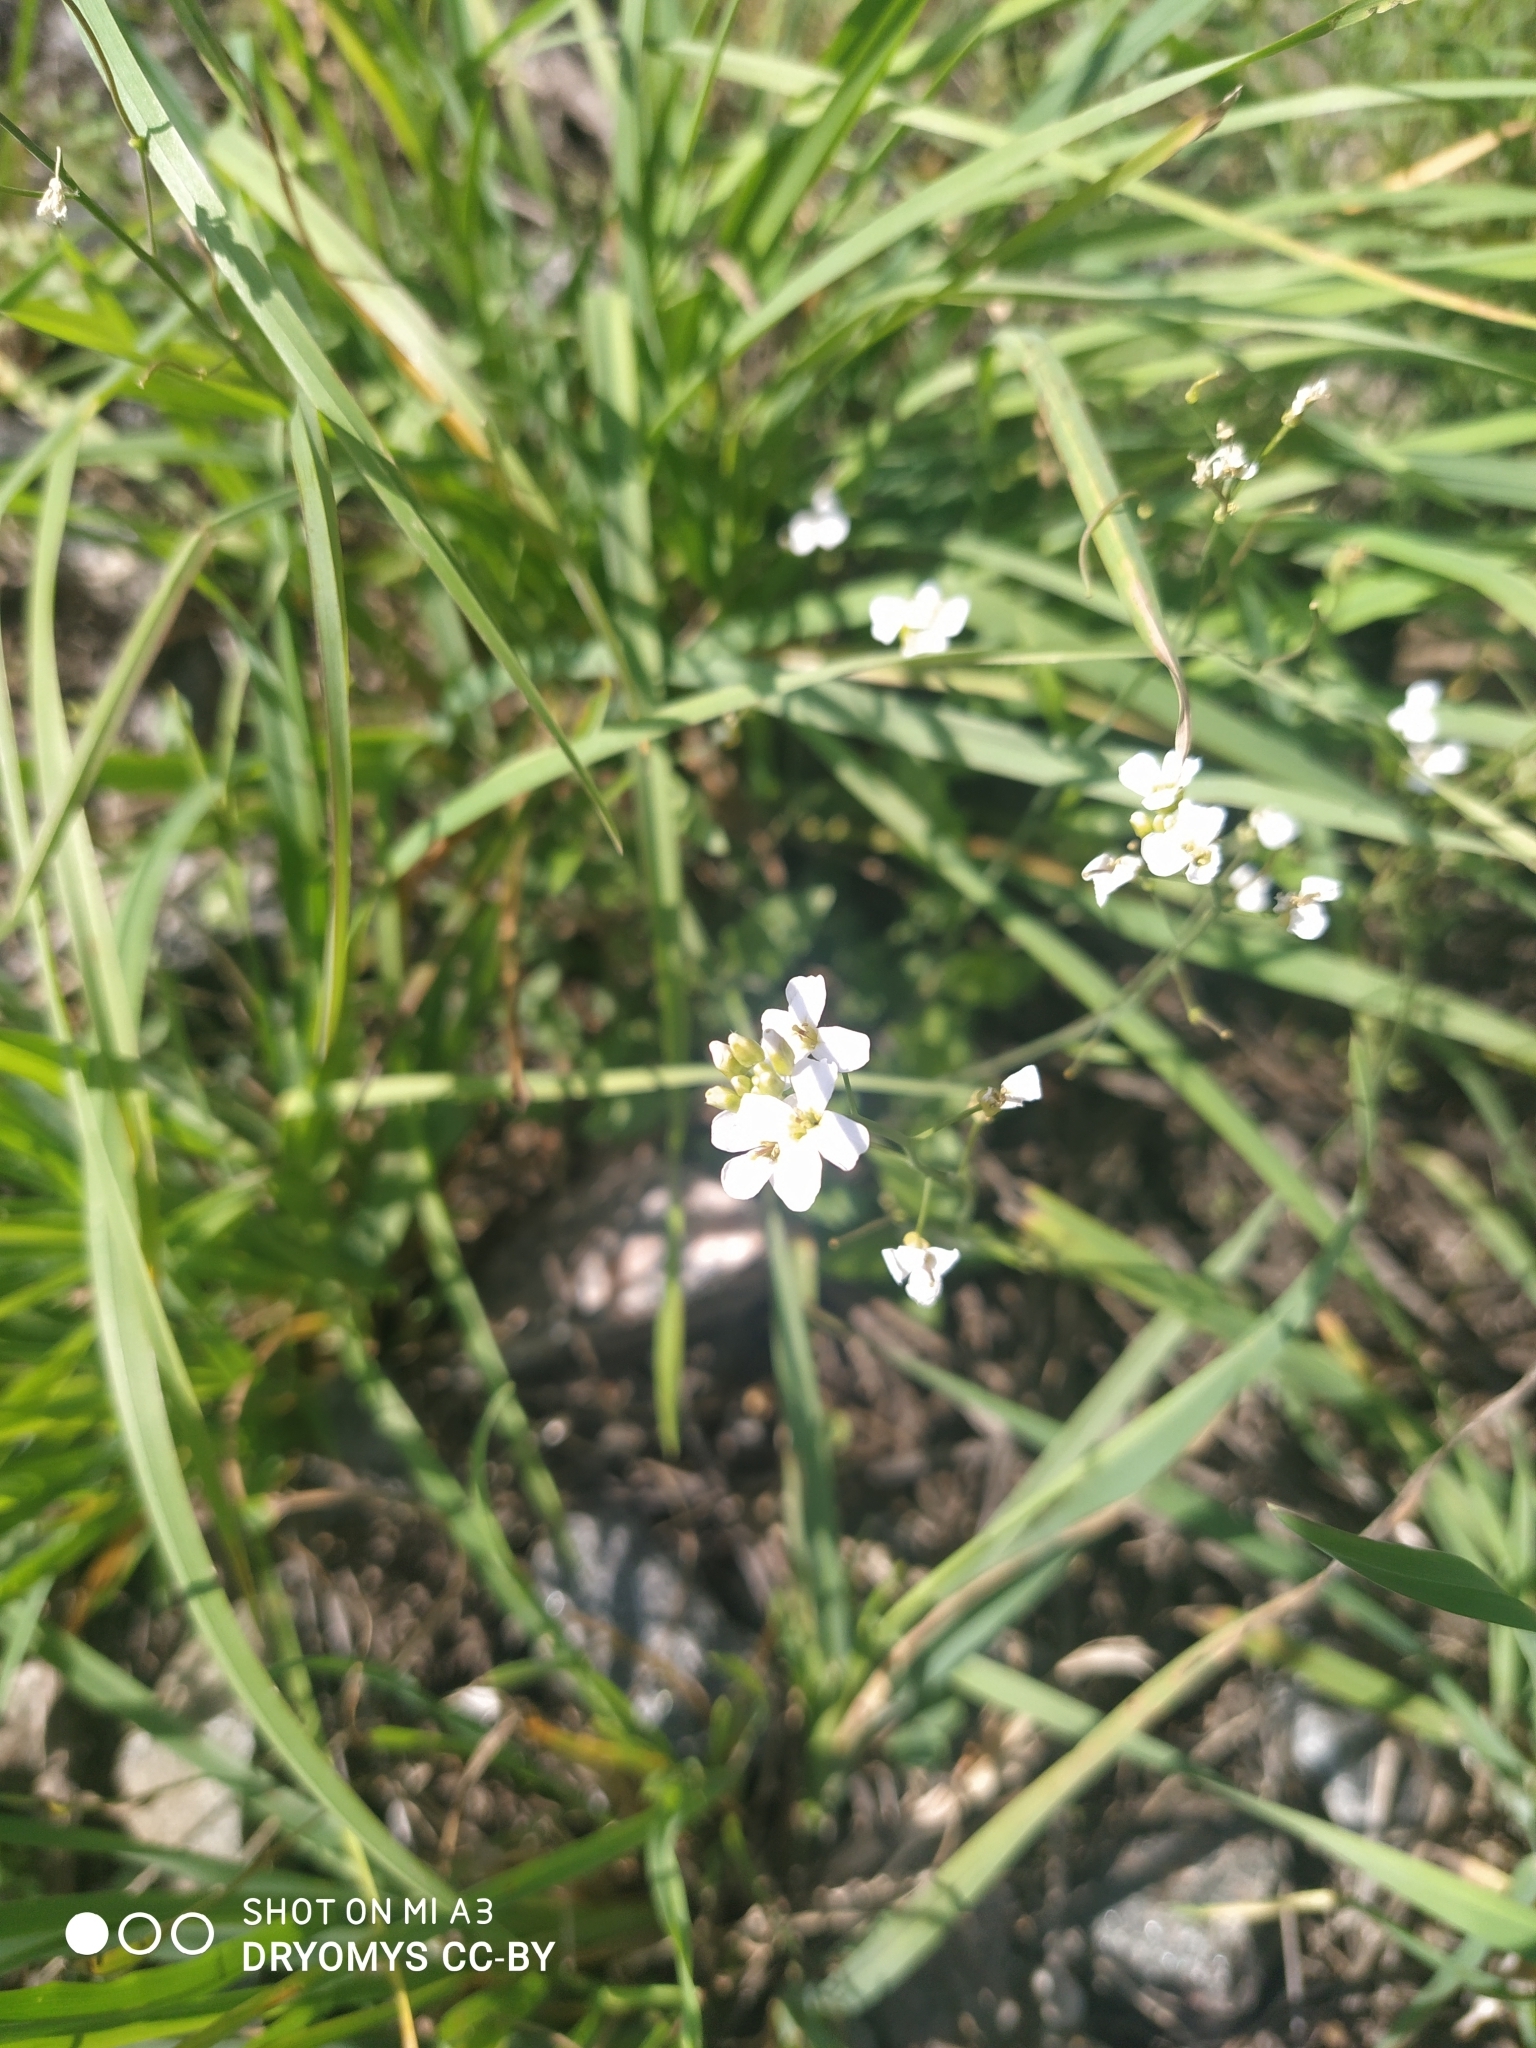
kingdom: Plantae
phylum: Tracheophyta
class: Magnoliopsida
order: Brassicales
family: Brassicaceae
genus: Arabidopsis
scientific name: Arabidopsis arenosa
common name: Sand rock-cress
